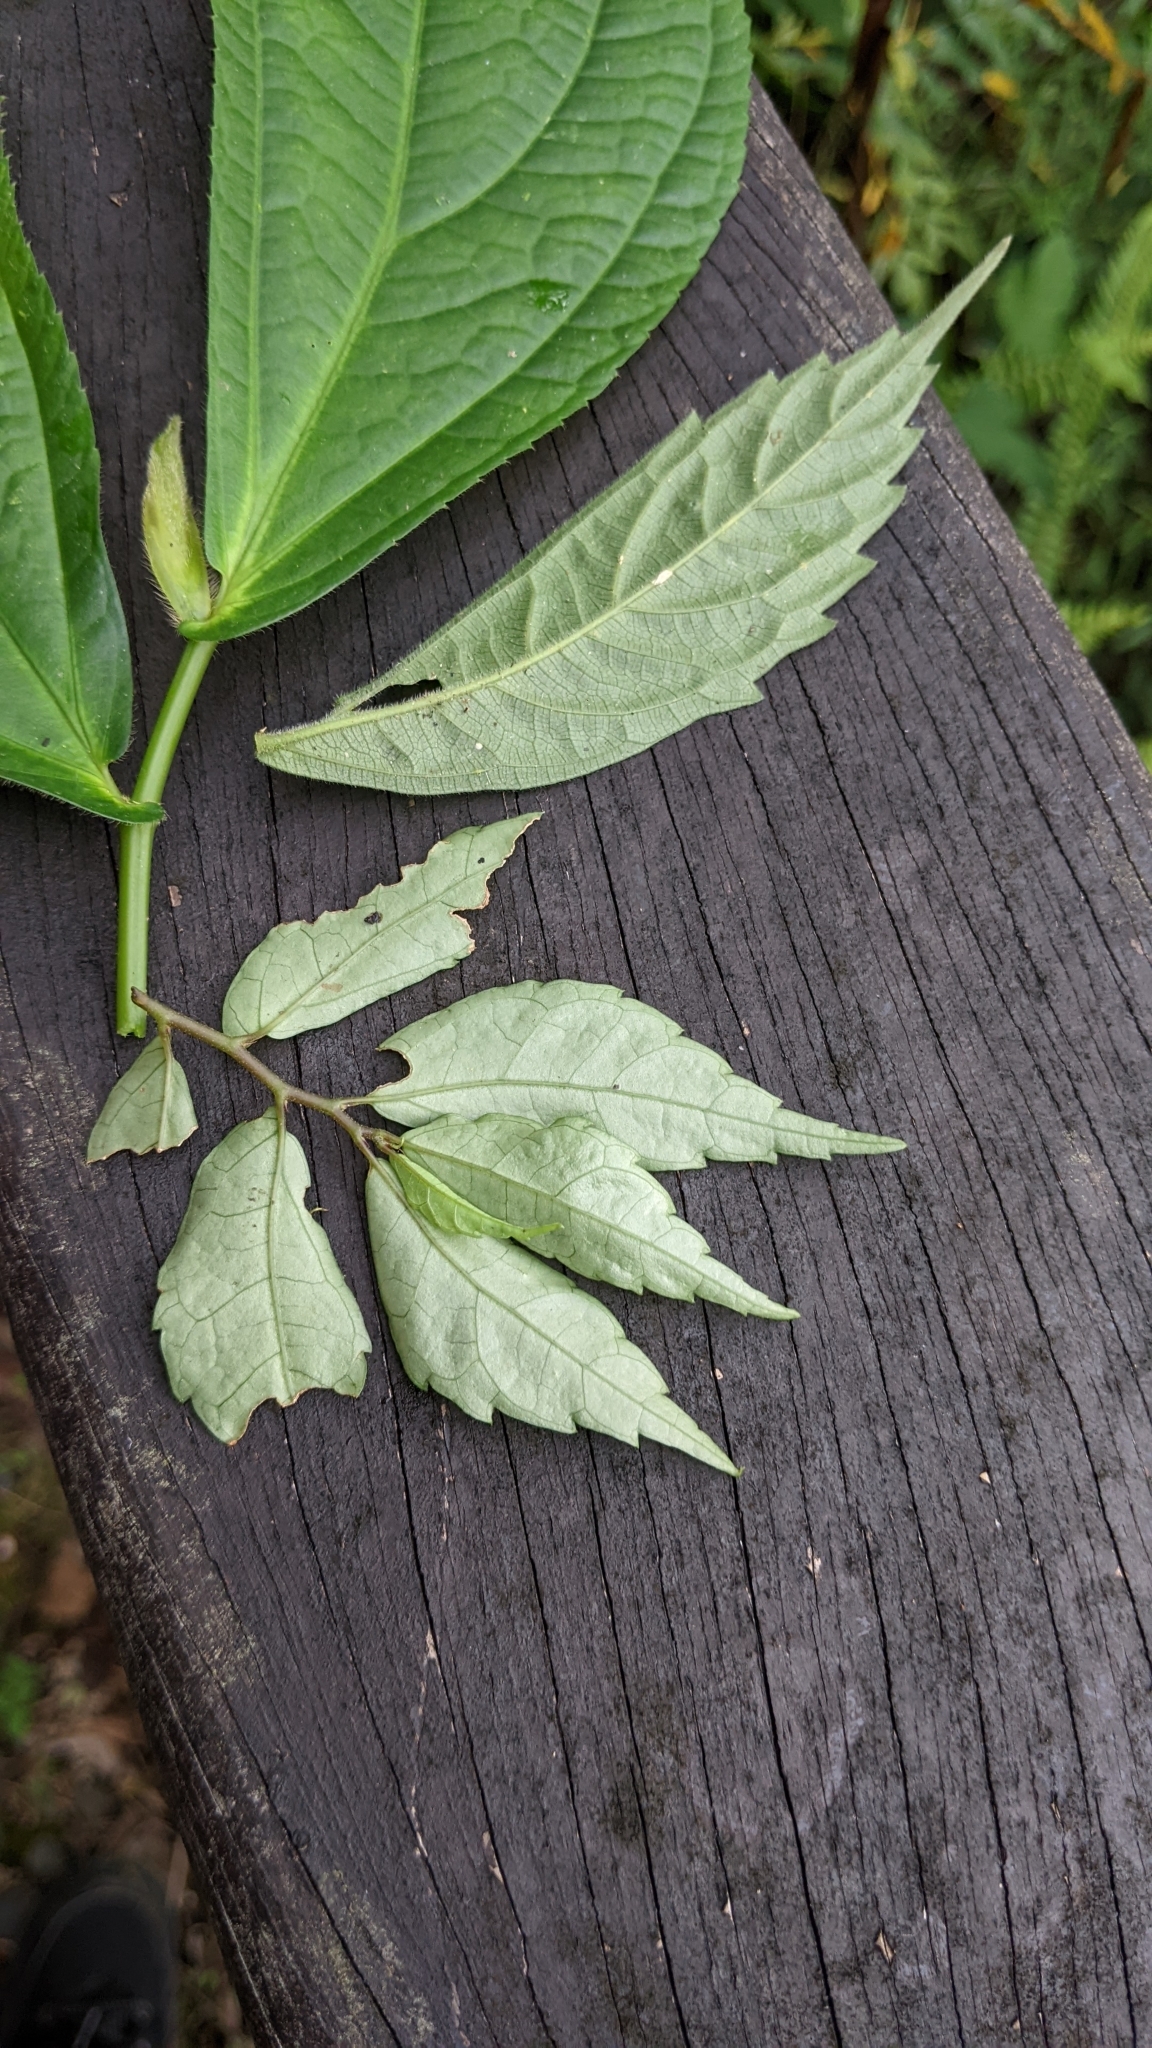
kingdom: Plantae
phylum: Tracheophyta
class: Magnoliopsida
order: Rosales
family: Urticaceae
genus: Elatostema
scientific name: Elatostema radicans
